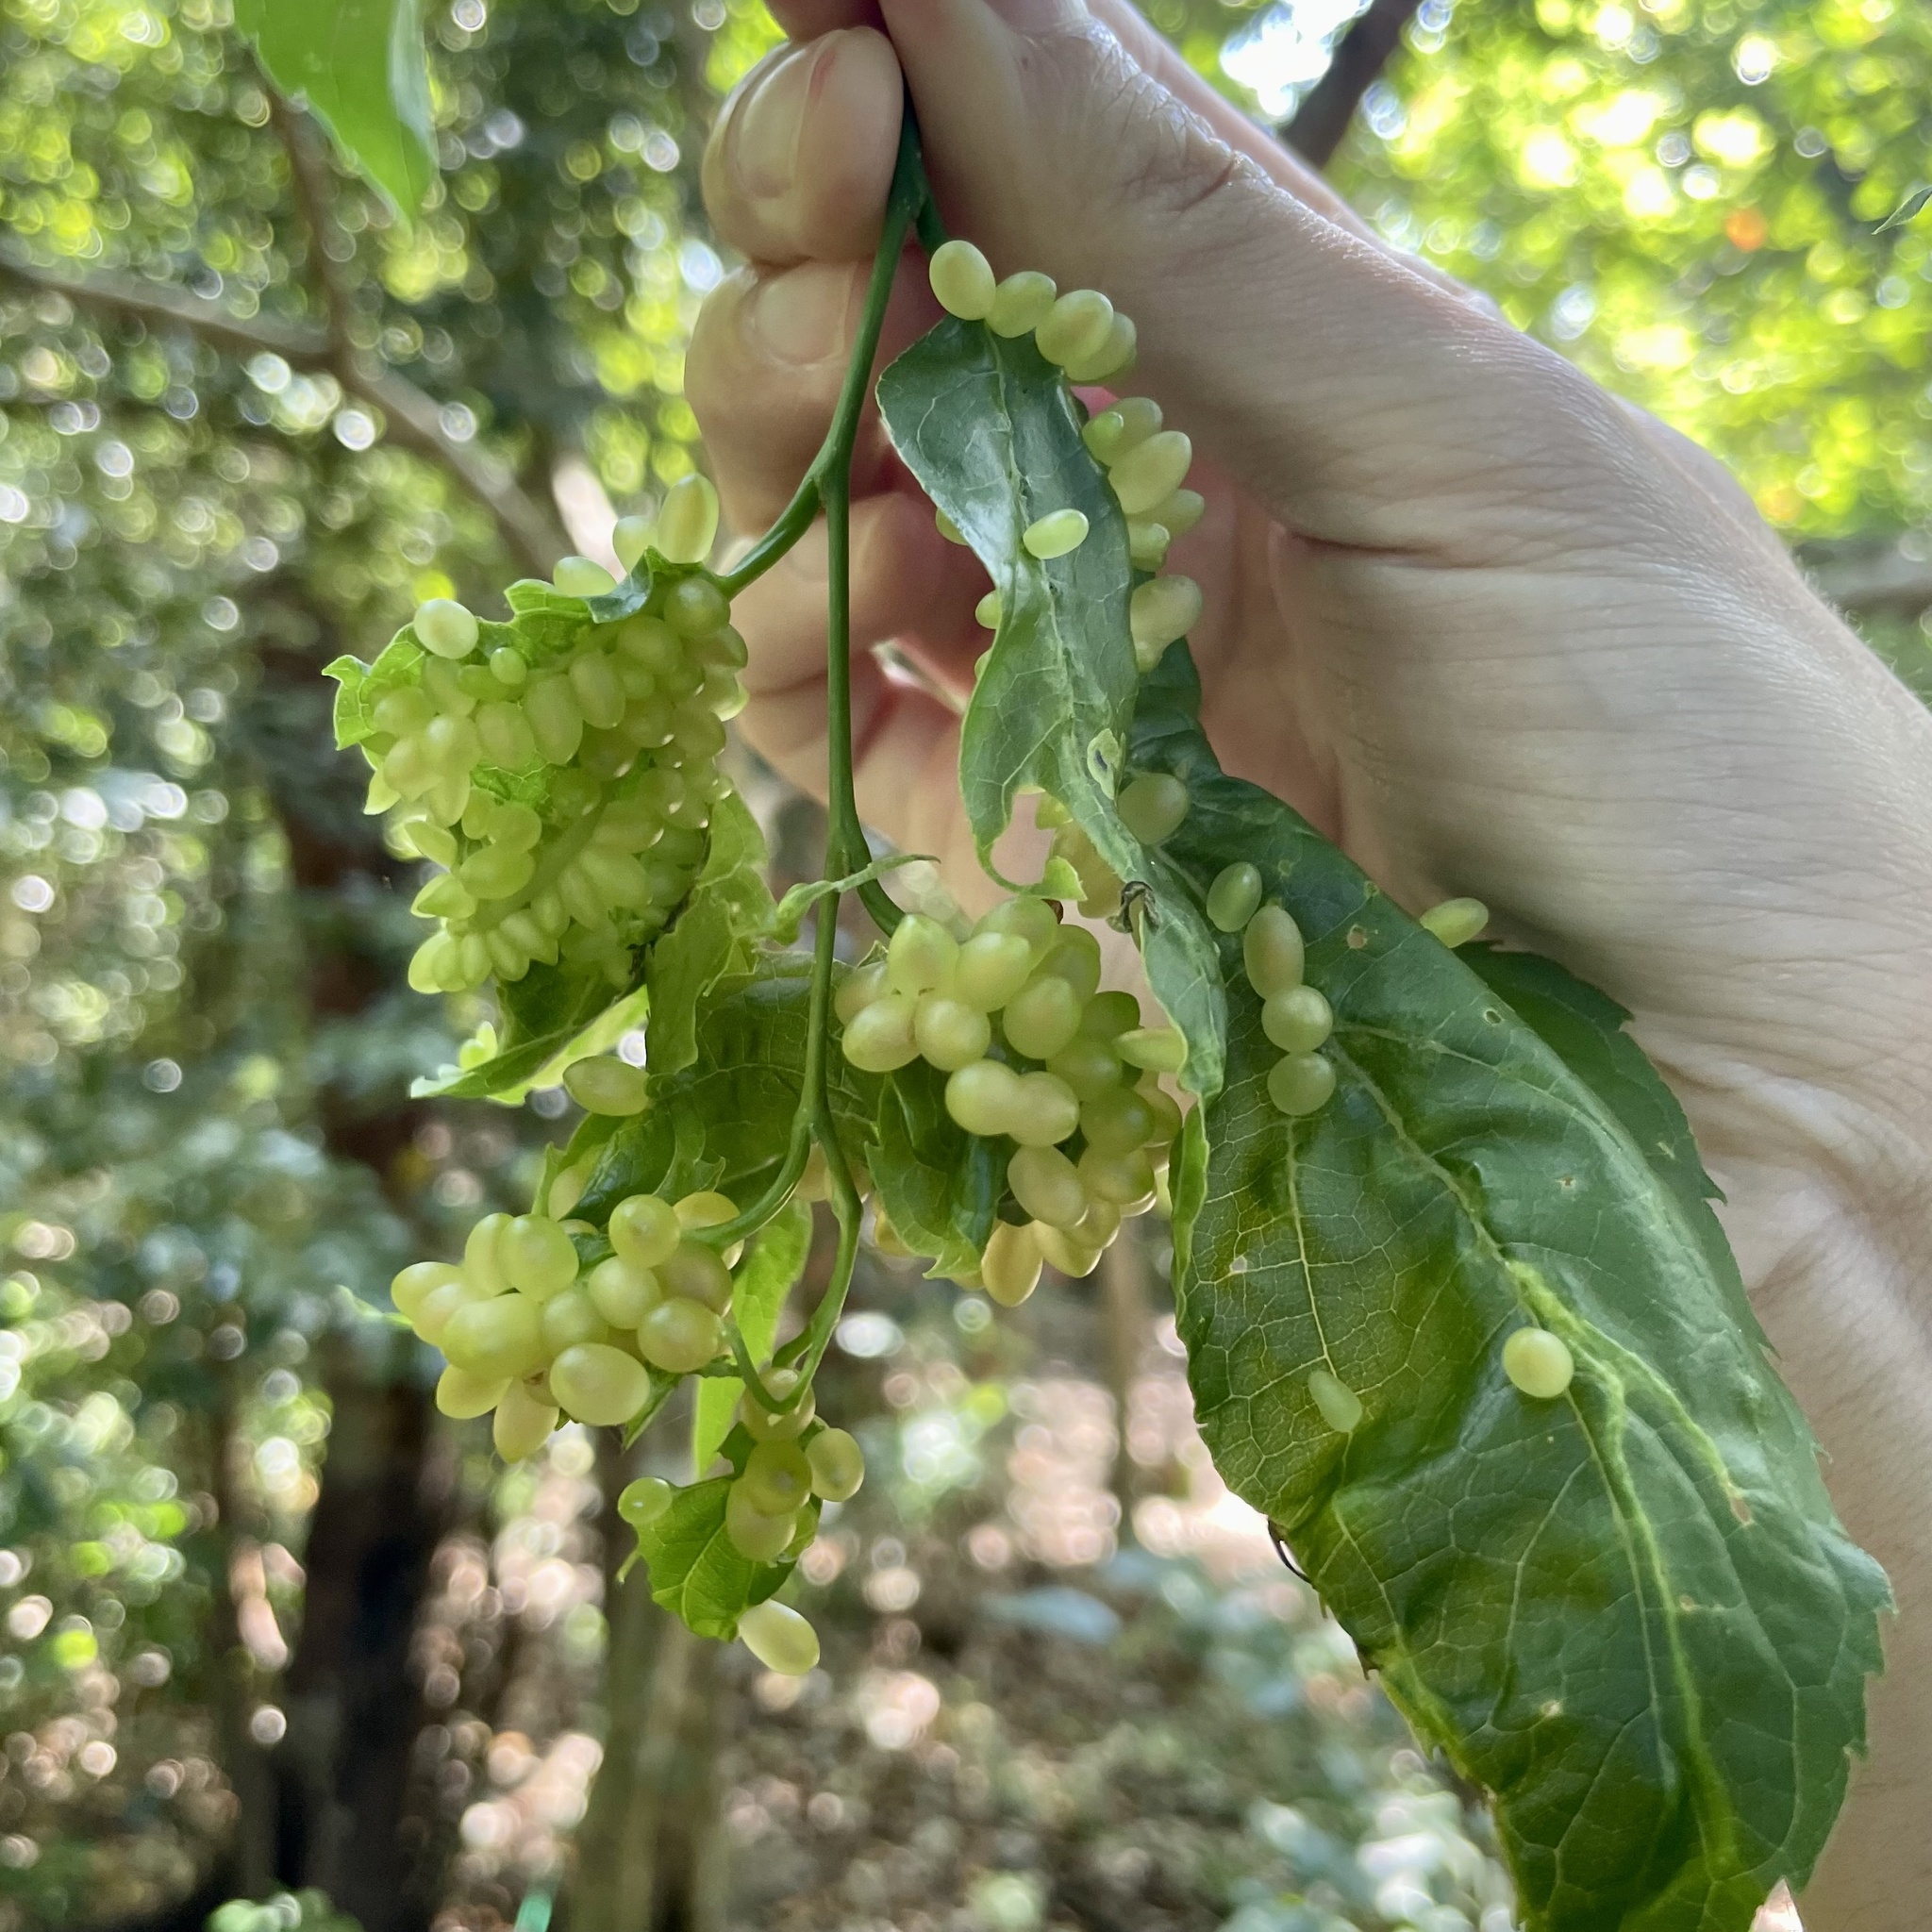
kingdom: Animalia
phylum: Arthropoda
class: Insecta
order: Diptera
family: Cecidomyiidae
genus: Celticecis
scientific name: Celticecis insulicola
